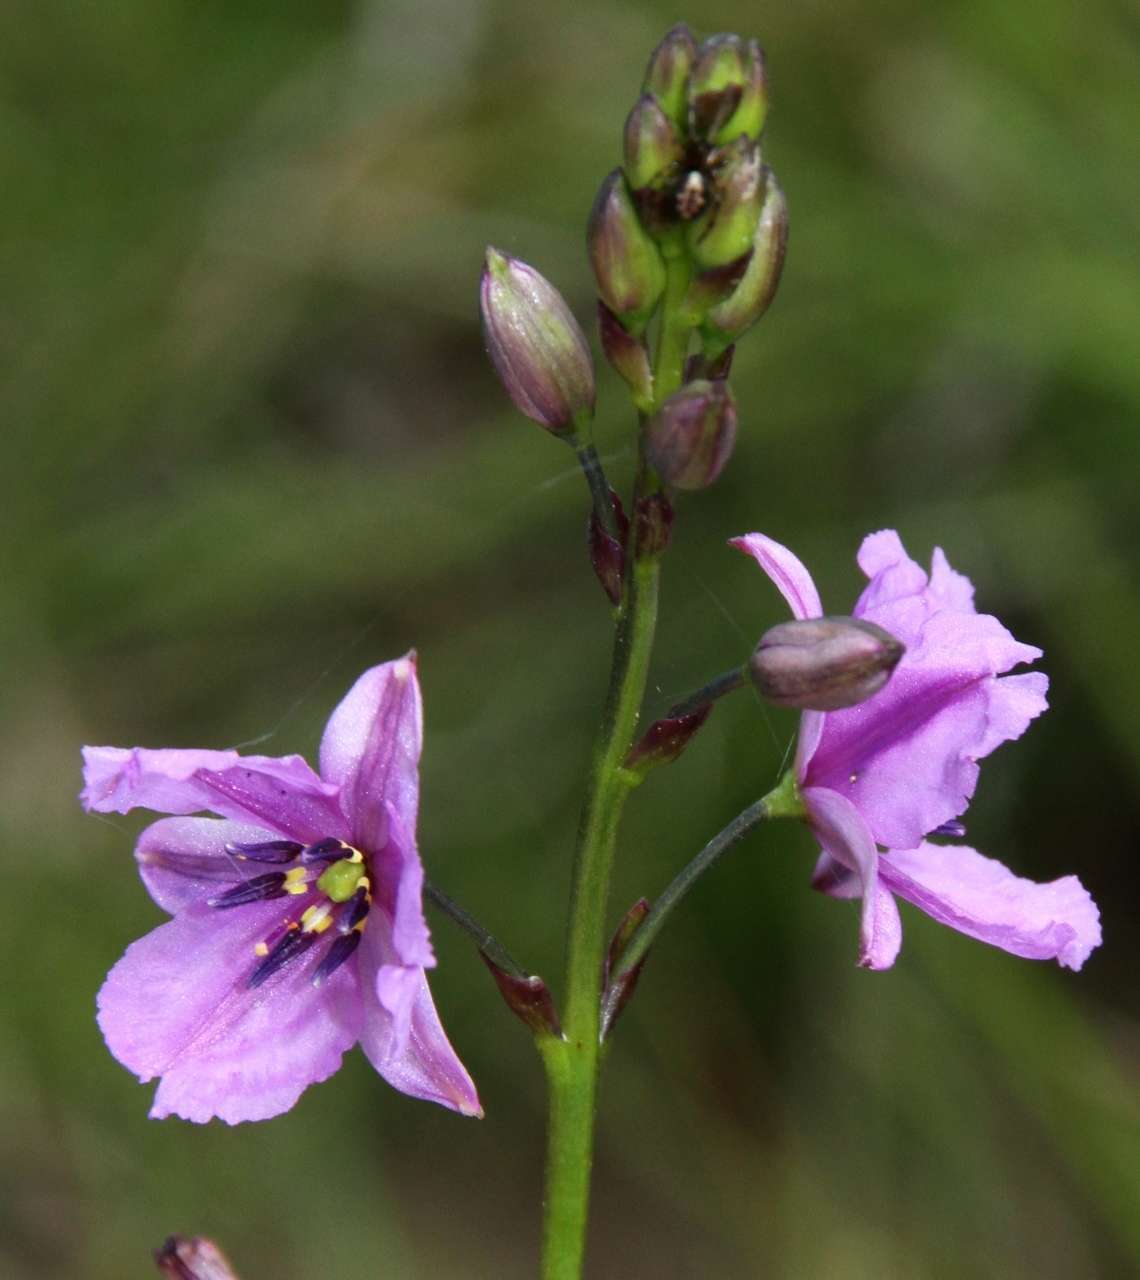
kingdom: Plantae
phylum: Tracheophyta
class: Liliopsida
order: Asparagales
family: Asparagaceae
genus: Arthropodium
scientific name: Arthropodium strictum
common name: Chocolate-lily
